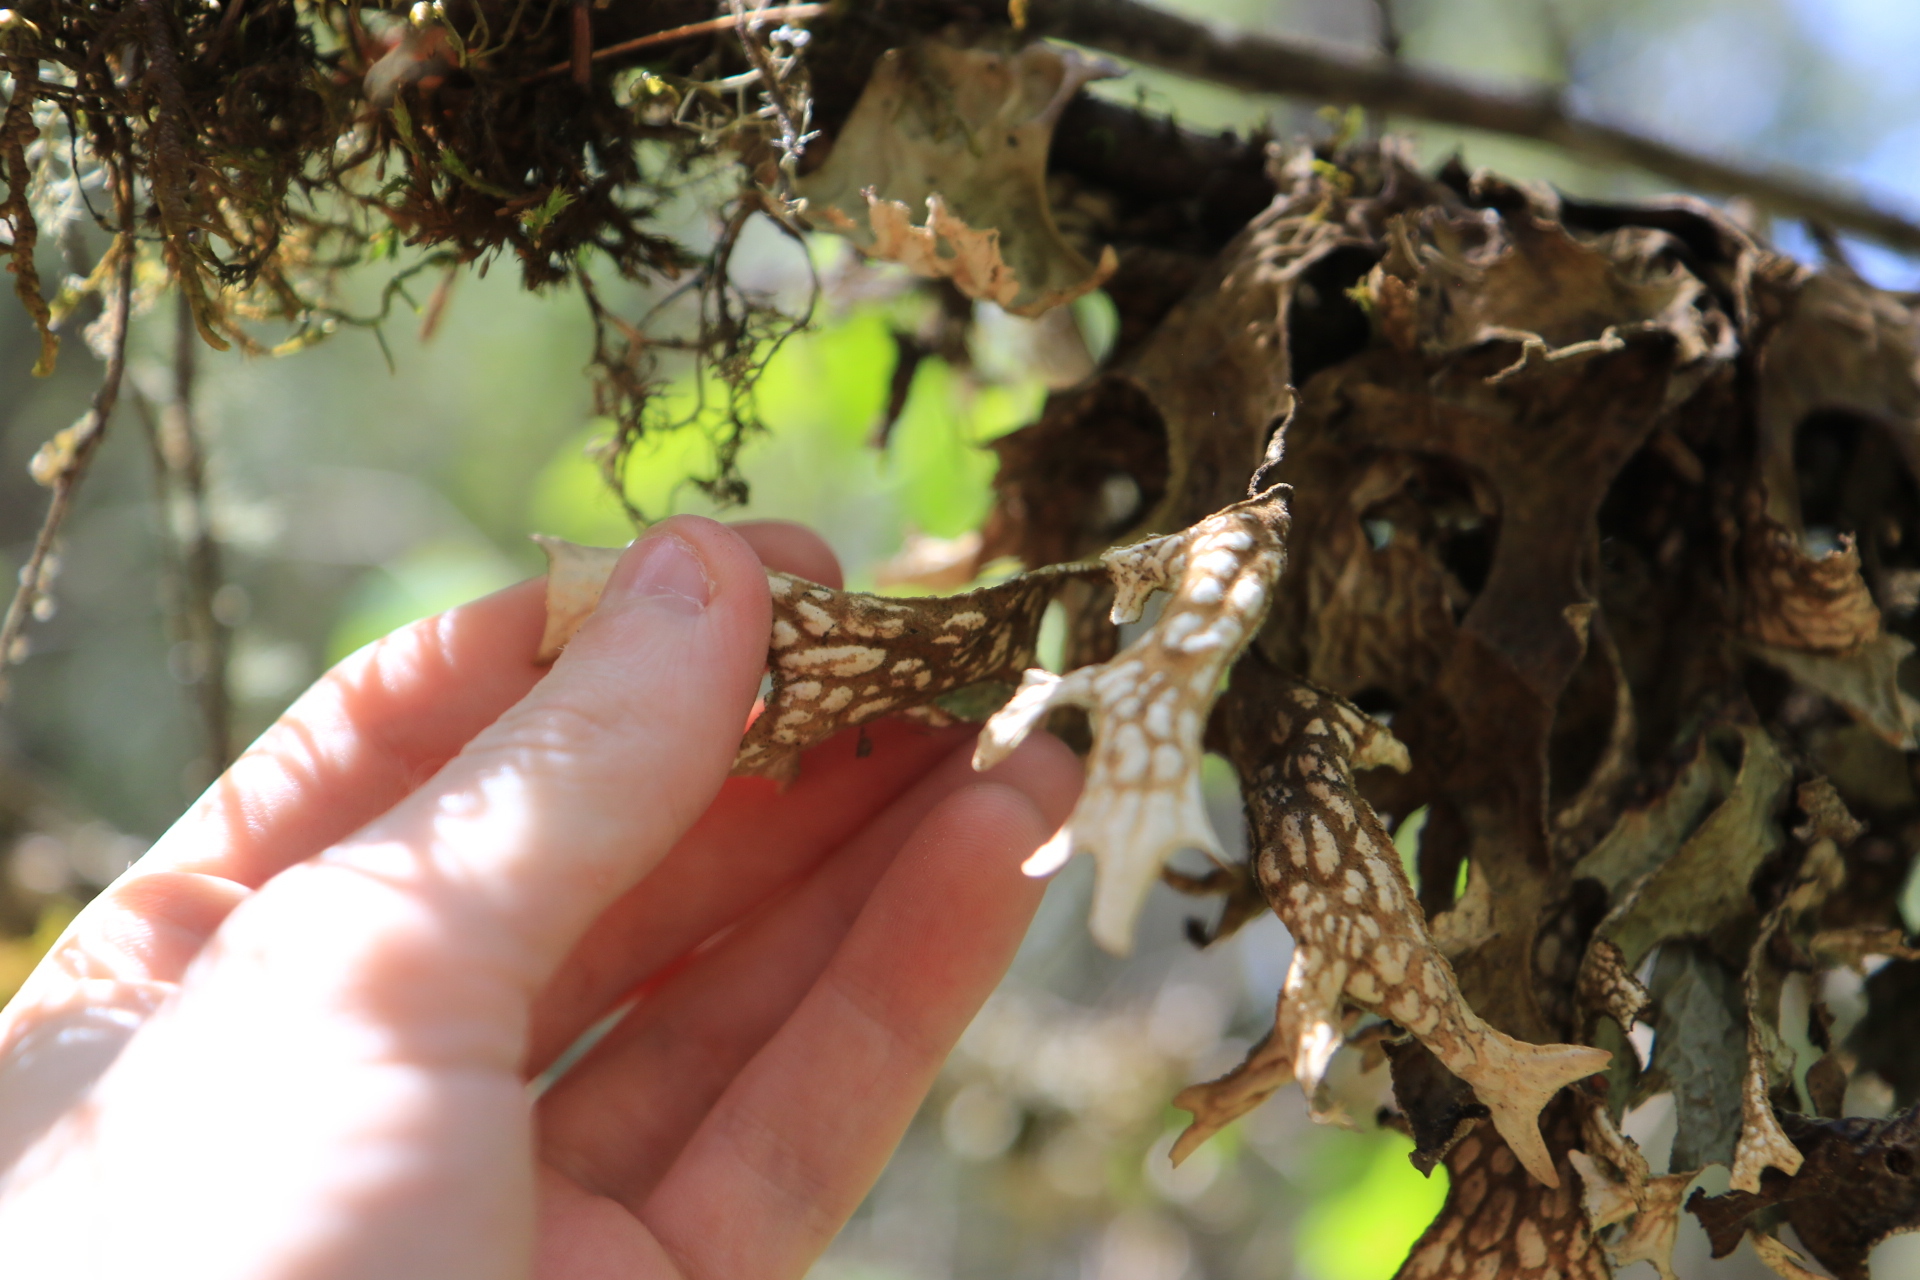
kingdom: Fungi
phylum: Ascomycota
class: Lecanoromycetes
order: Peltigerales
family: Lobariaceae
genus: Lobaria
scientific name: Lobaria pulmonaria
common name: Lungwort
